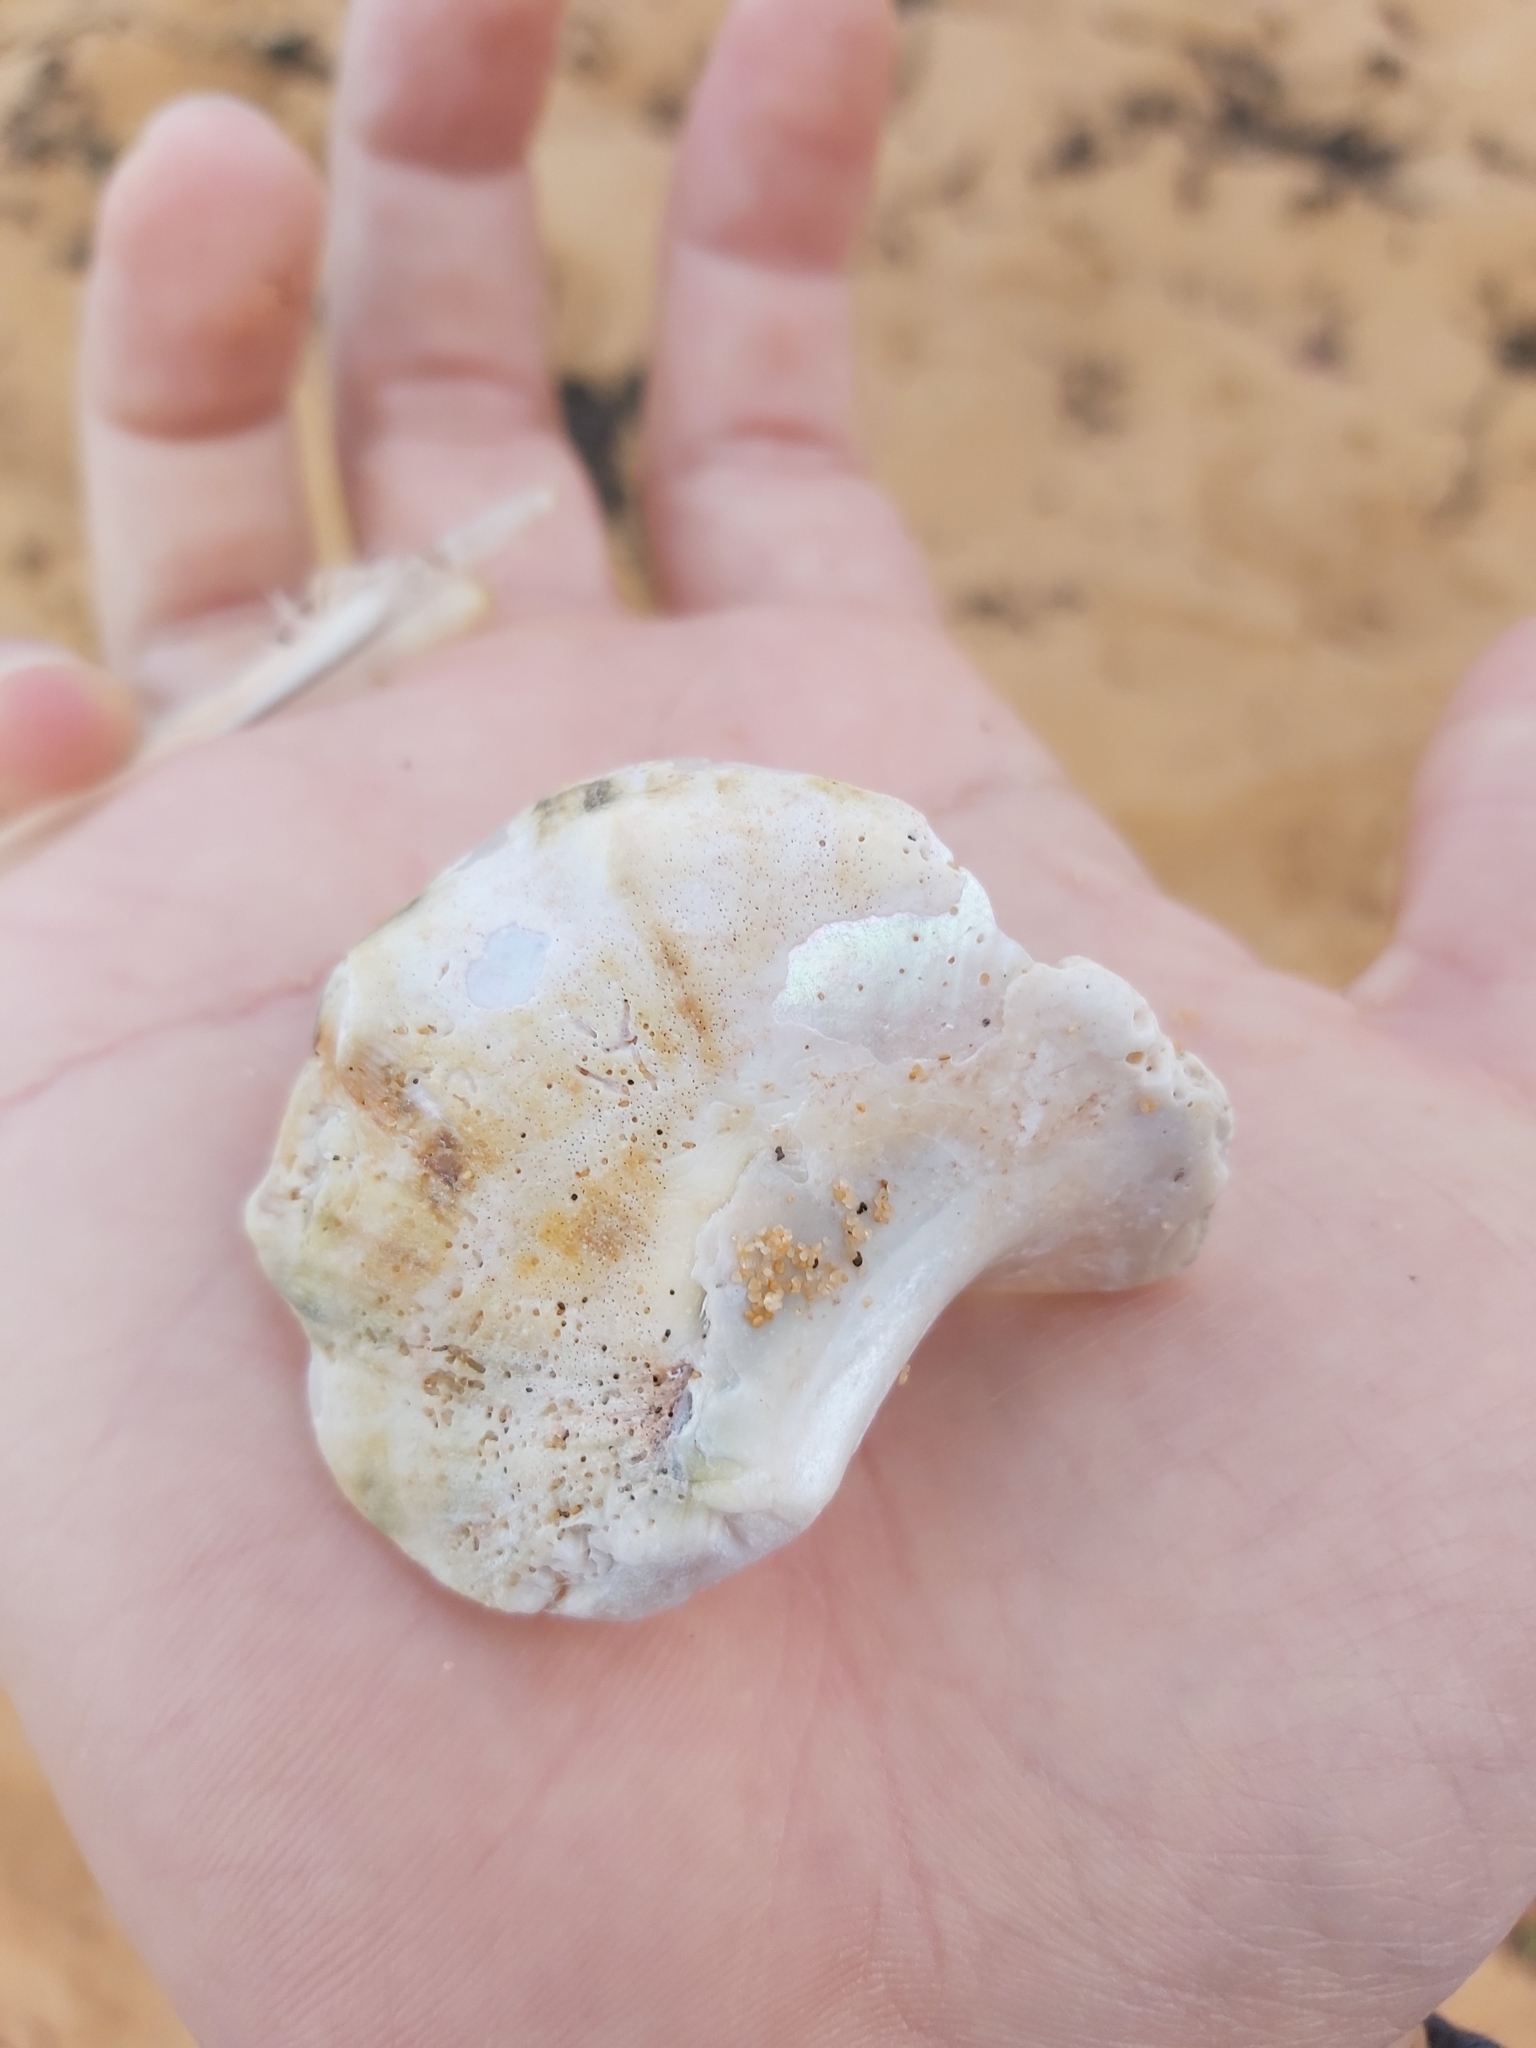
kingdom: Animalia
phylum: Mollusca
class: Gastropoda
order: Trochida
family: Turbinidae
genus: Turbo
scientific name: Turbo militaris
